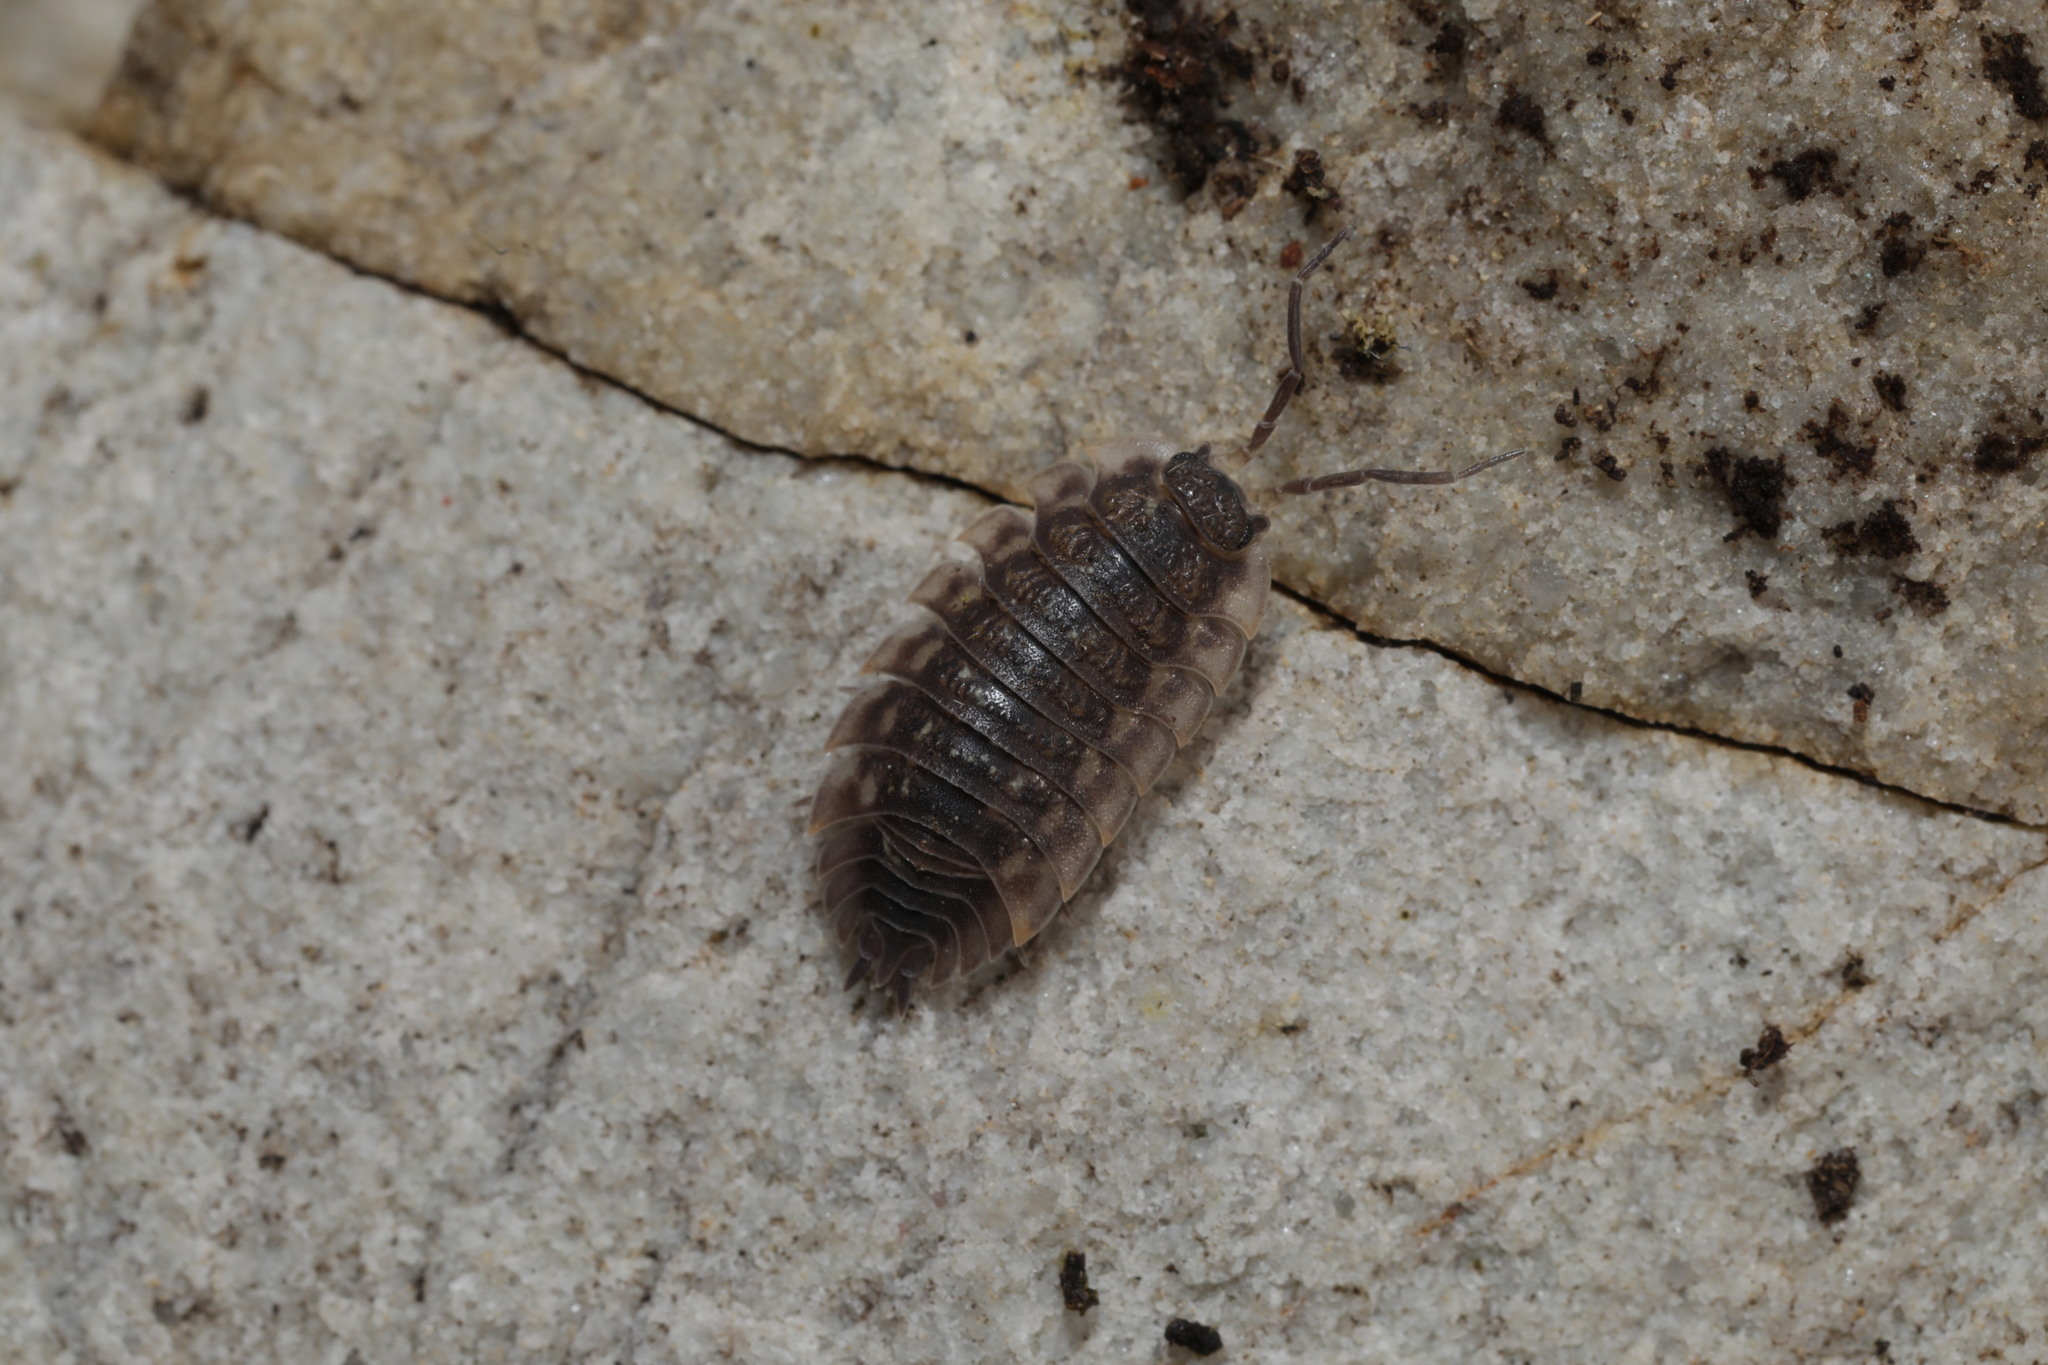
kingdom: Animalia
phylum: Arthropoda
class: Malacostraca
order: Isopoda
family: Porcellionidae
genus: Porcellio
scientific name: Porcellio scaber
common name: Common rough woodlouse
